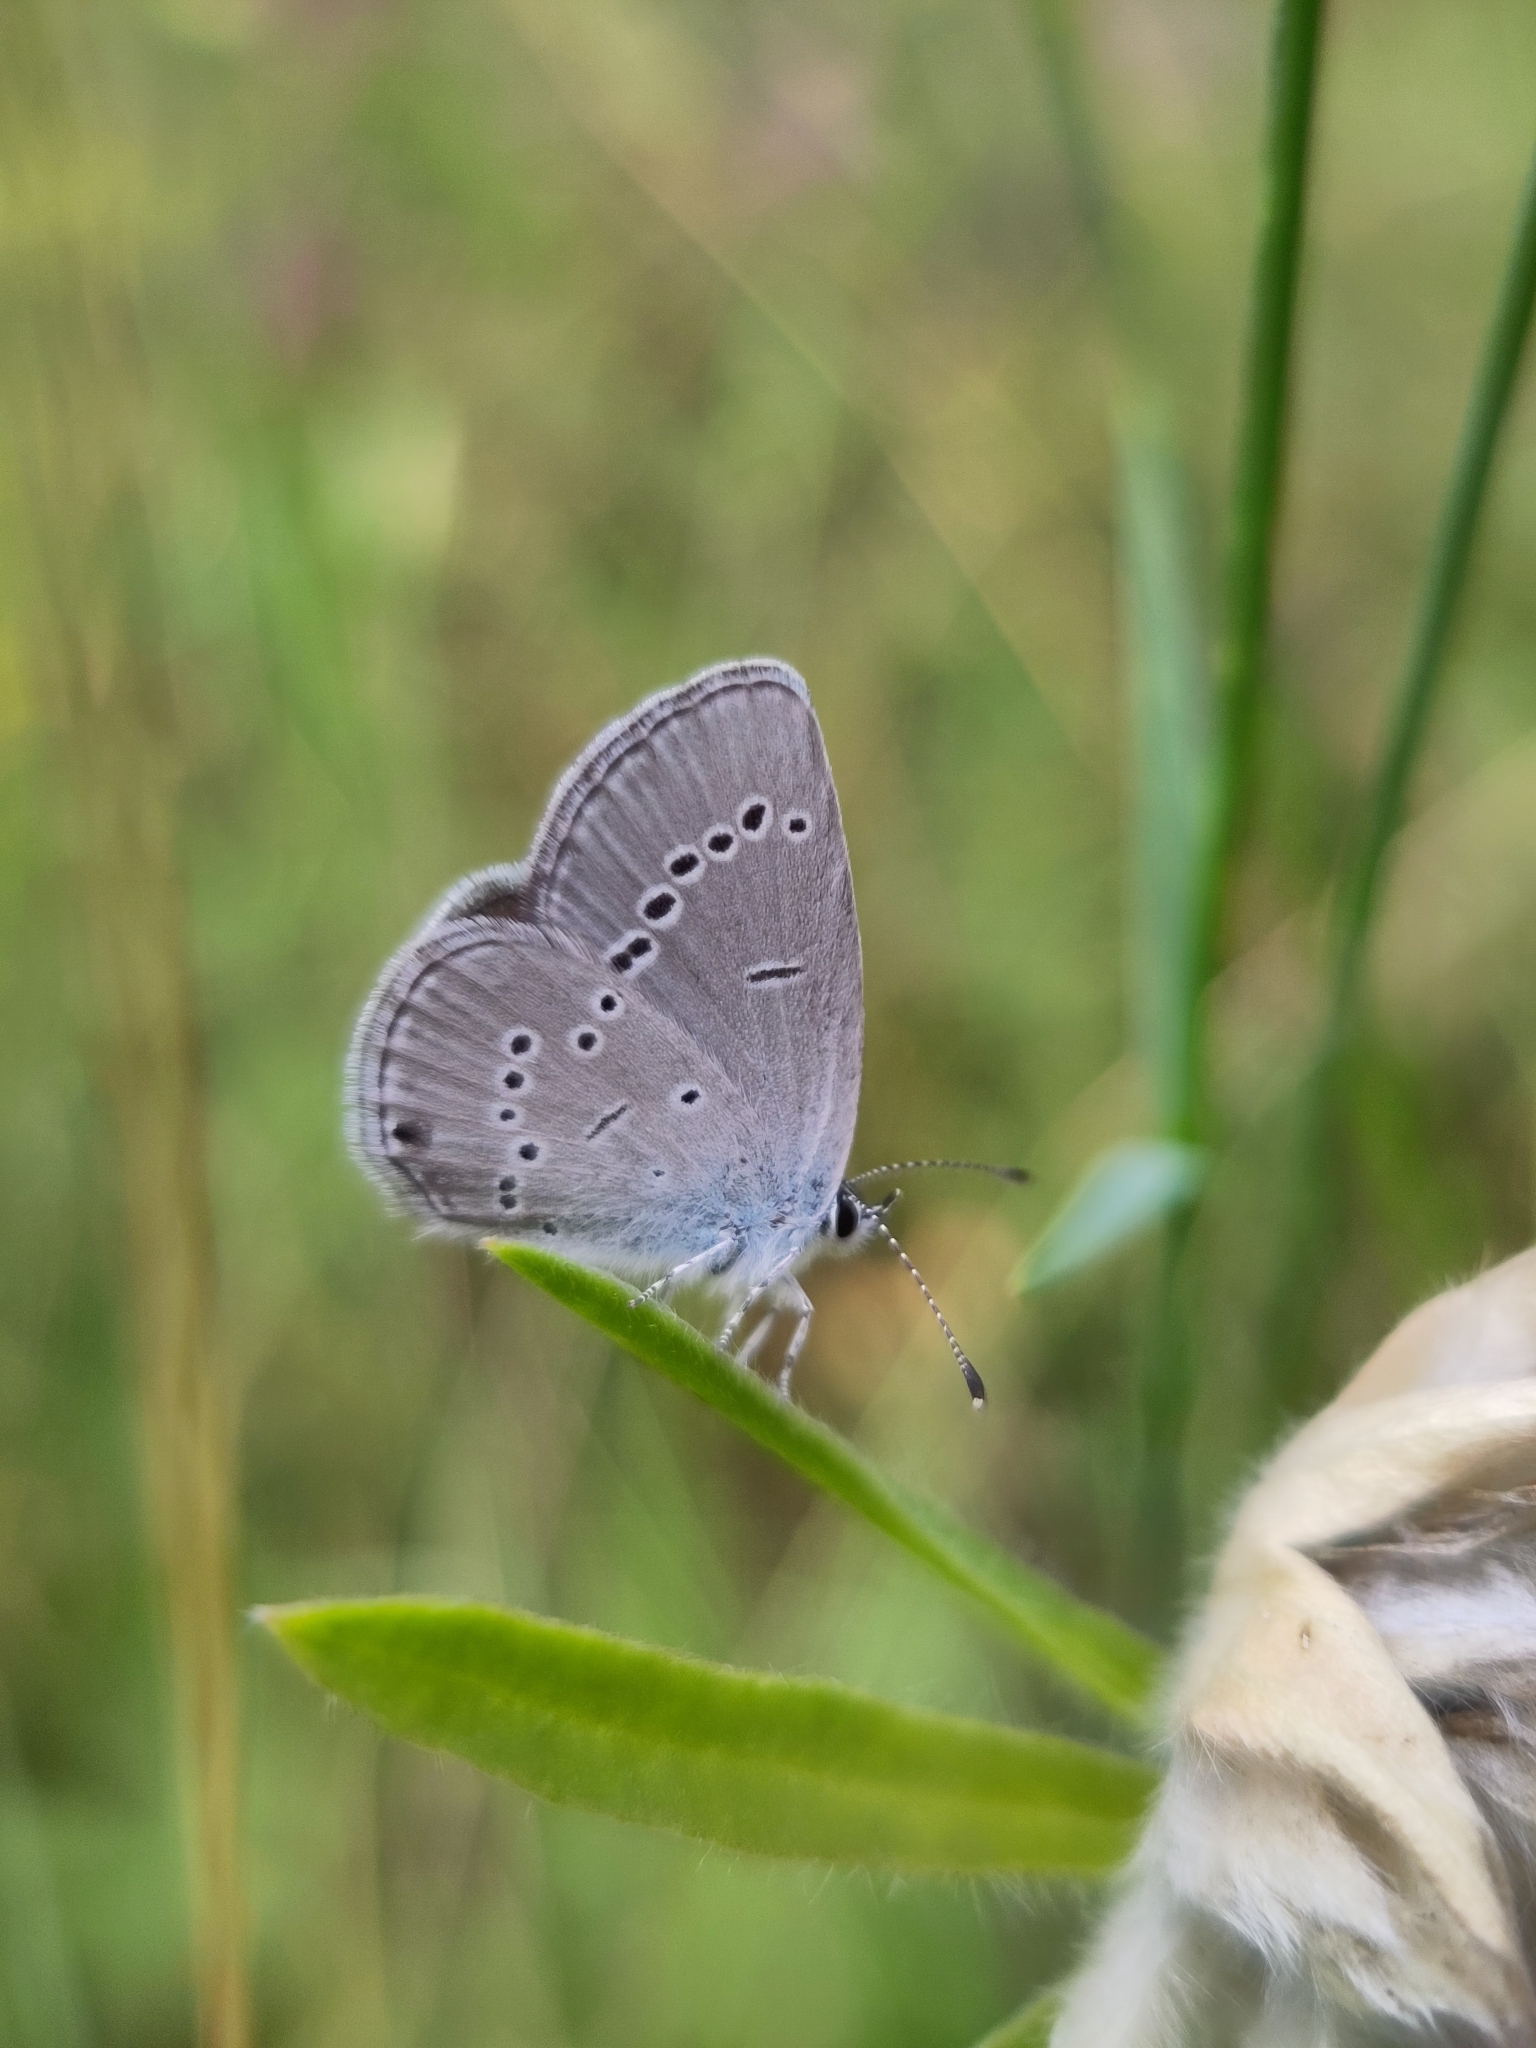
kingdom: Animalia
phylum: Arthropoda
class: Insecta
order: Lepidoptera
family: Lycaenidae
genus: Cupido
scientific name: Cupido minimus
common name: Small blue
